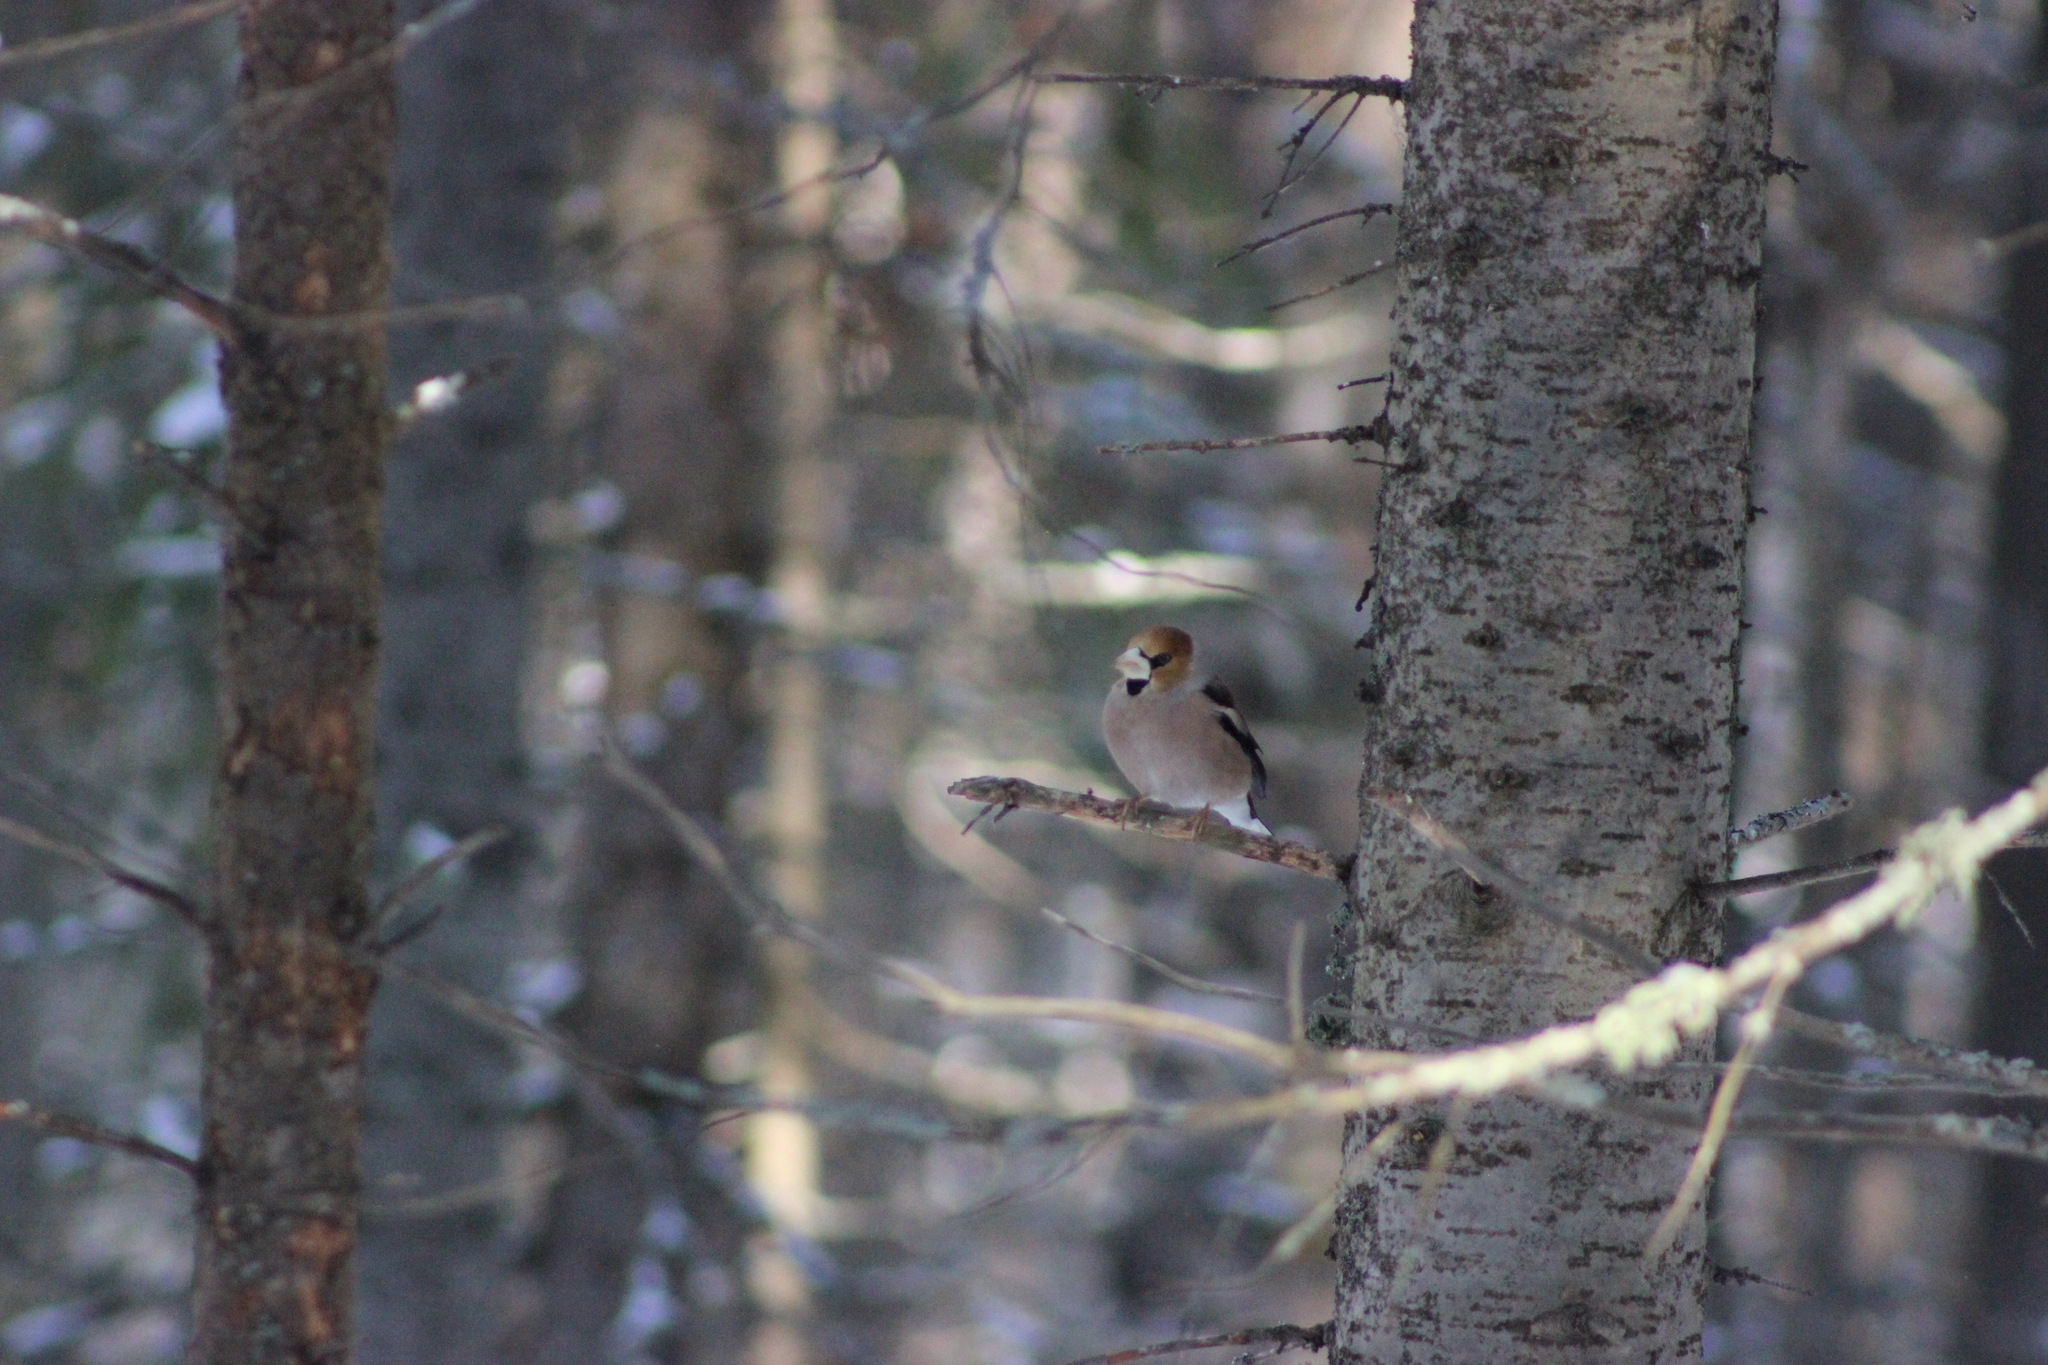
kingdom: Animalia
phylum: Chordata
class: Aves
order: Passeriformes
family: Fringillidae
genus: Coccothraustes
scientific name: Coccothraustes coccothraustes
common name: Hawfinch
